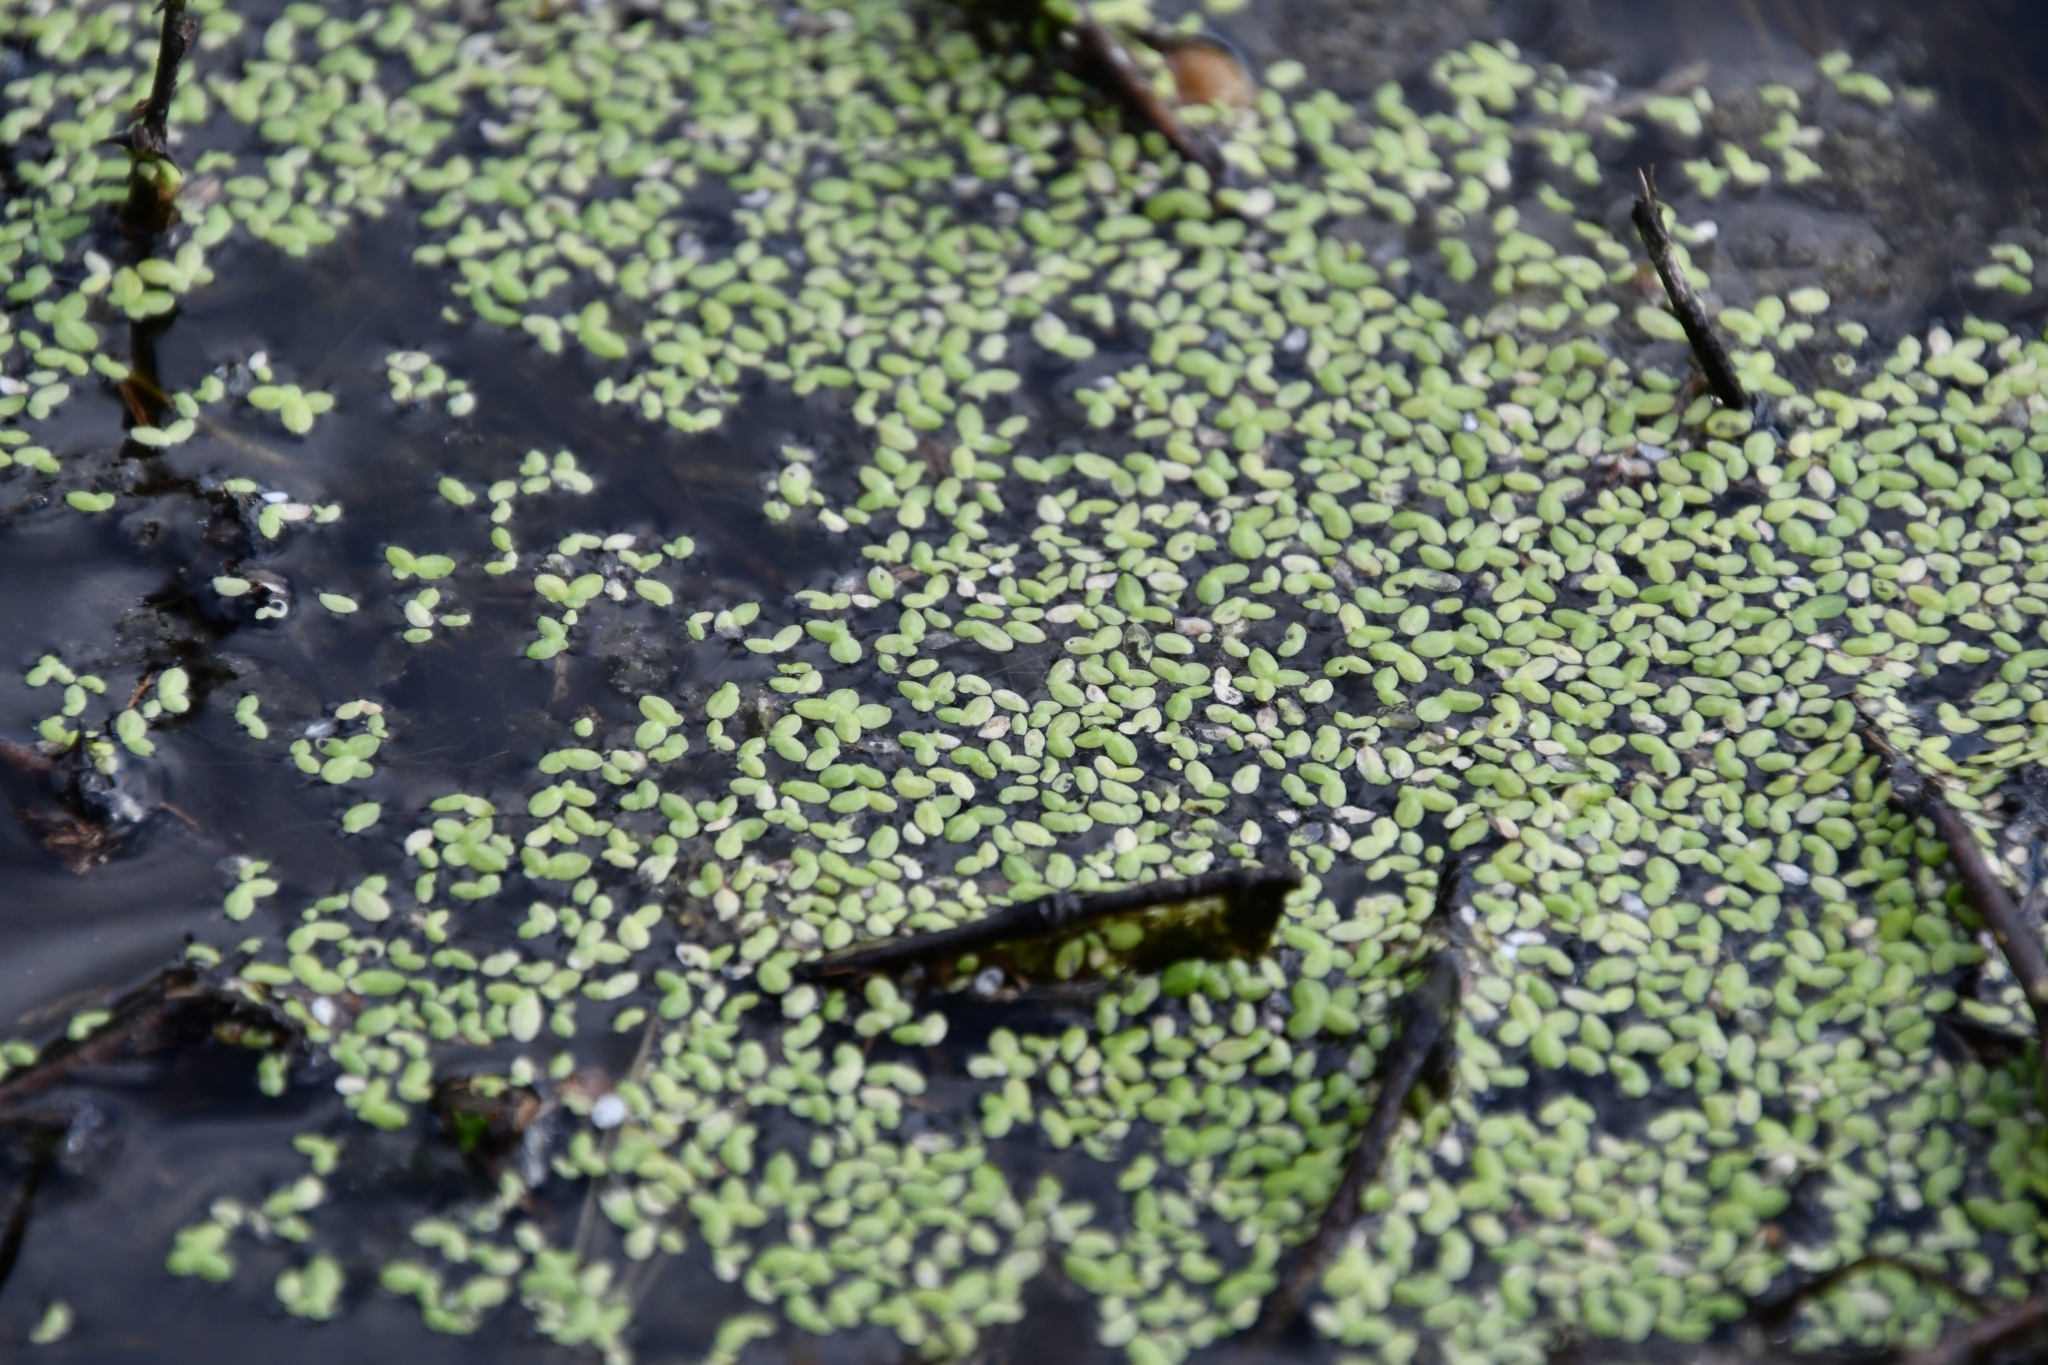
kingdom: Plantae
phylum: Tracheophyta
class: Liliopsida
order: Alismatales
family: Araceae
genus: Lemna
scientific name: Lemna aequinoctialis
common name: Duckweed
